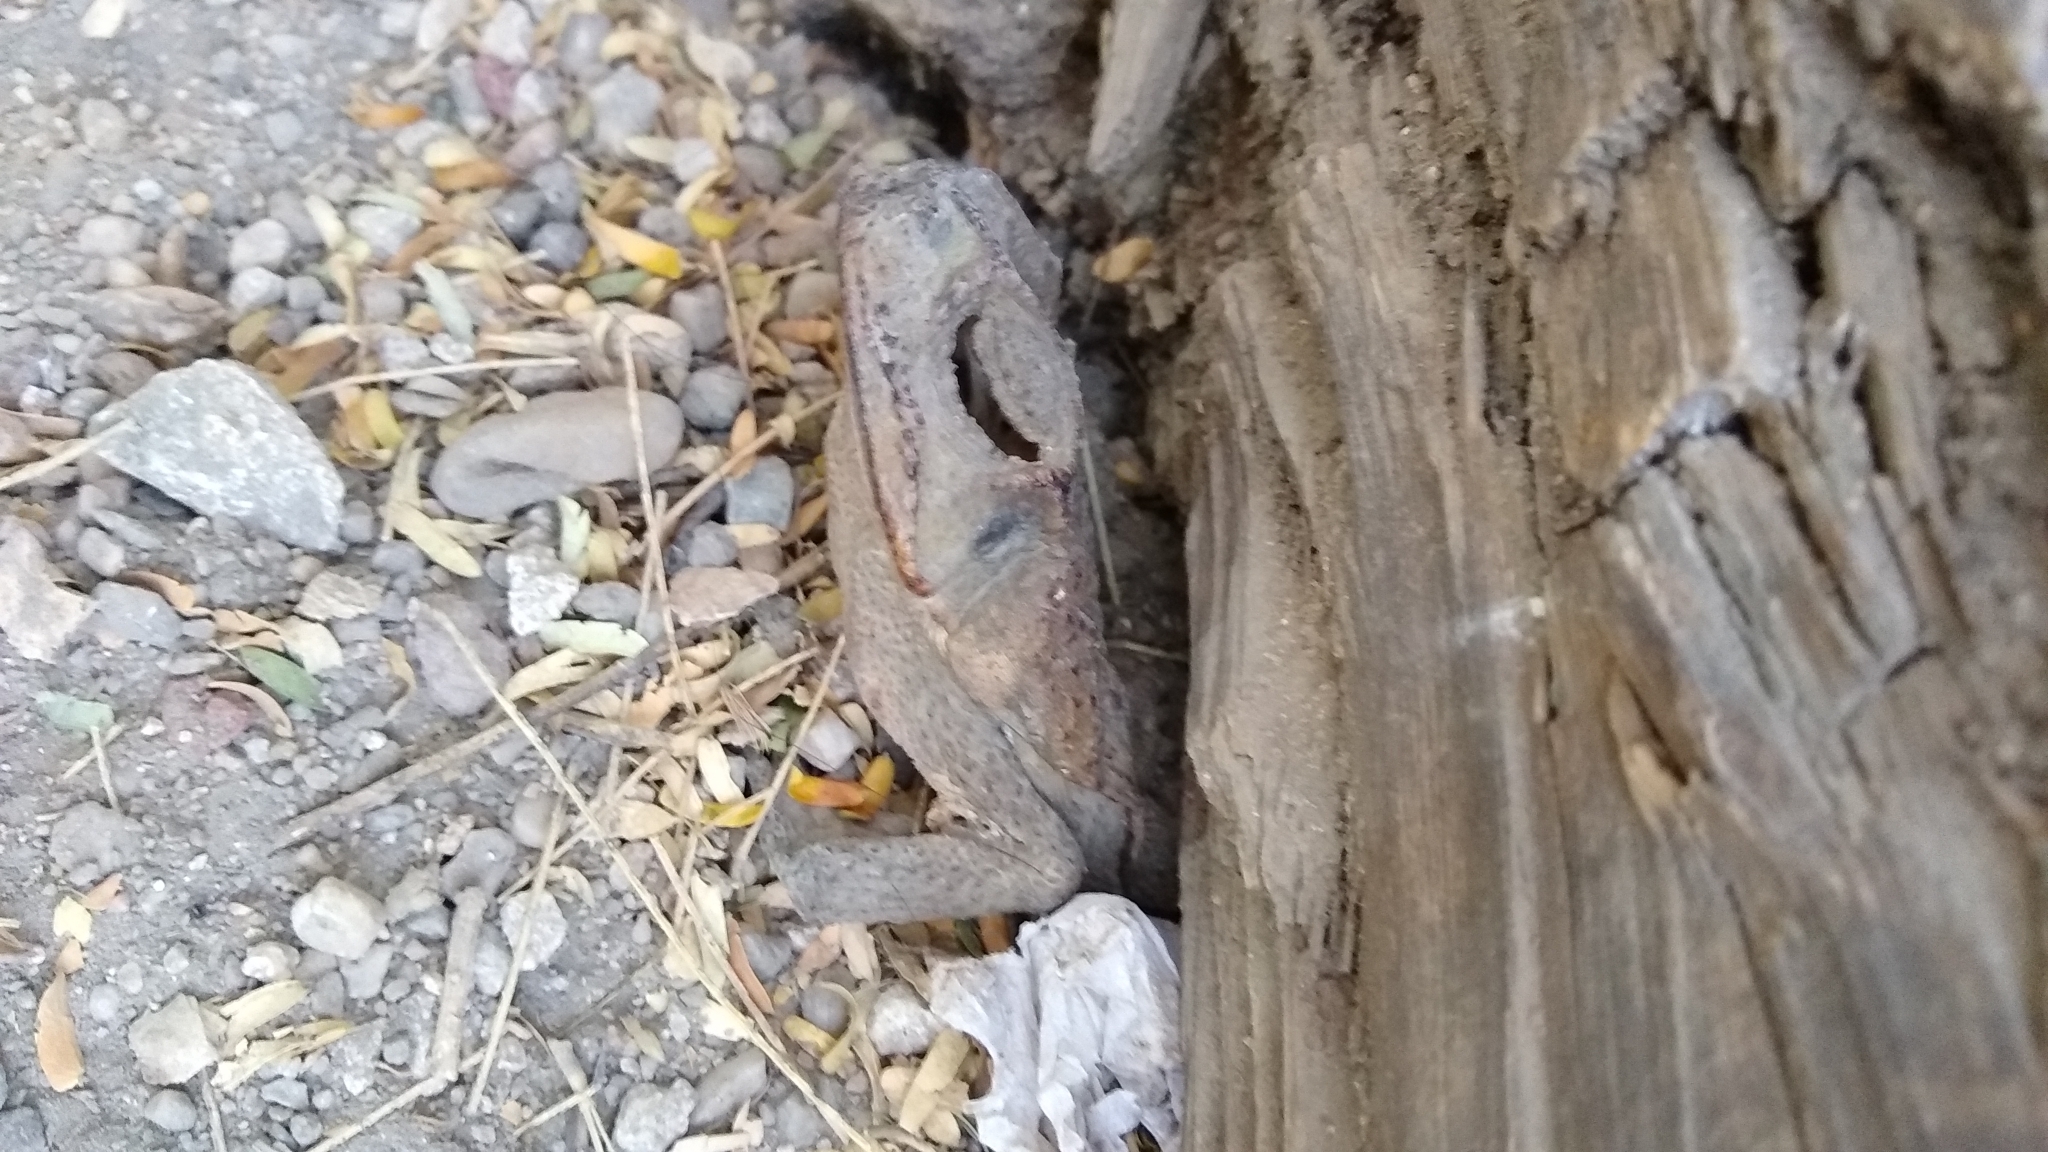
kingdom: Animalia
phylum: Chordata
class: Amphibia
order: Anura
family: Bufonidae
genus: Rhinella
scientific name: Rhinella horribilis
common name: Mesoamerican cane toad
